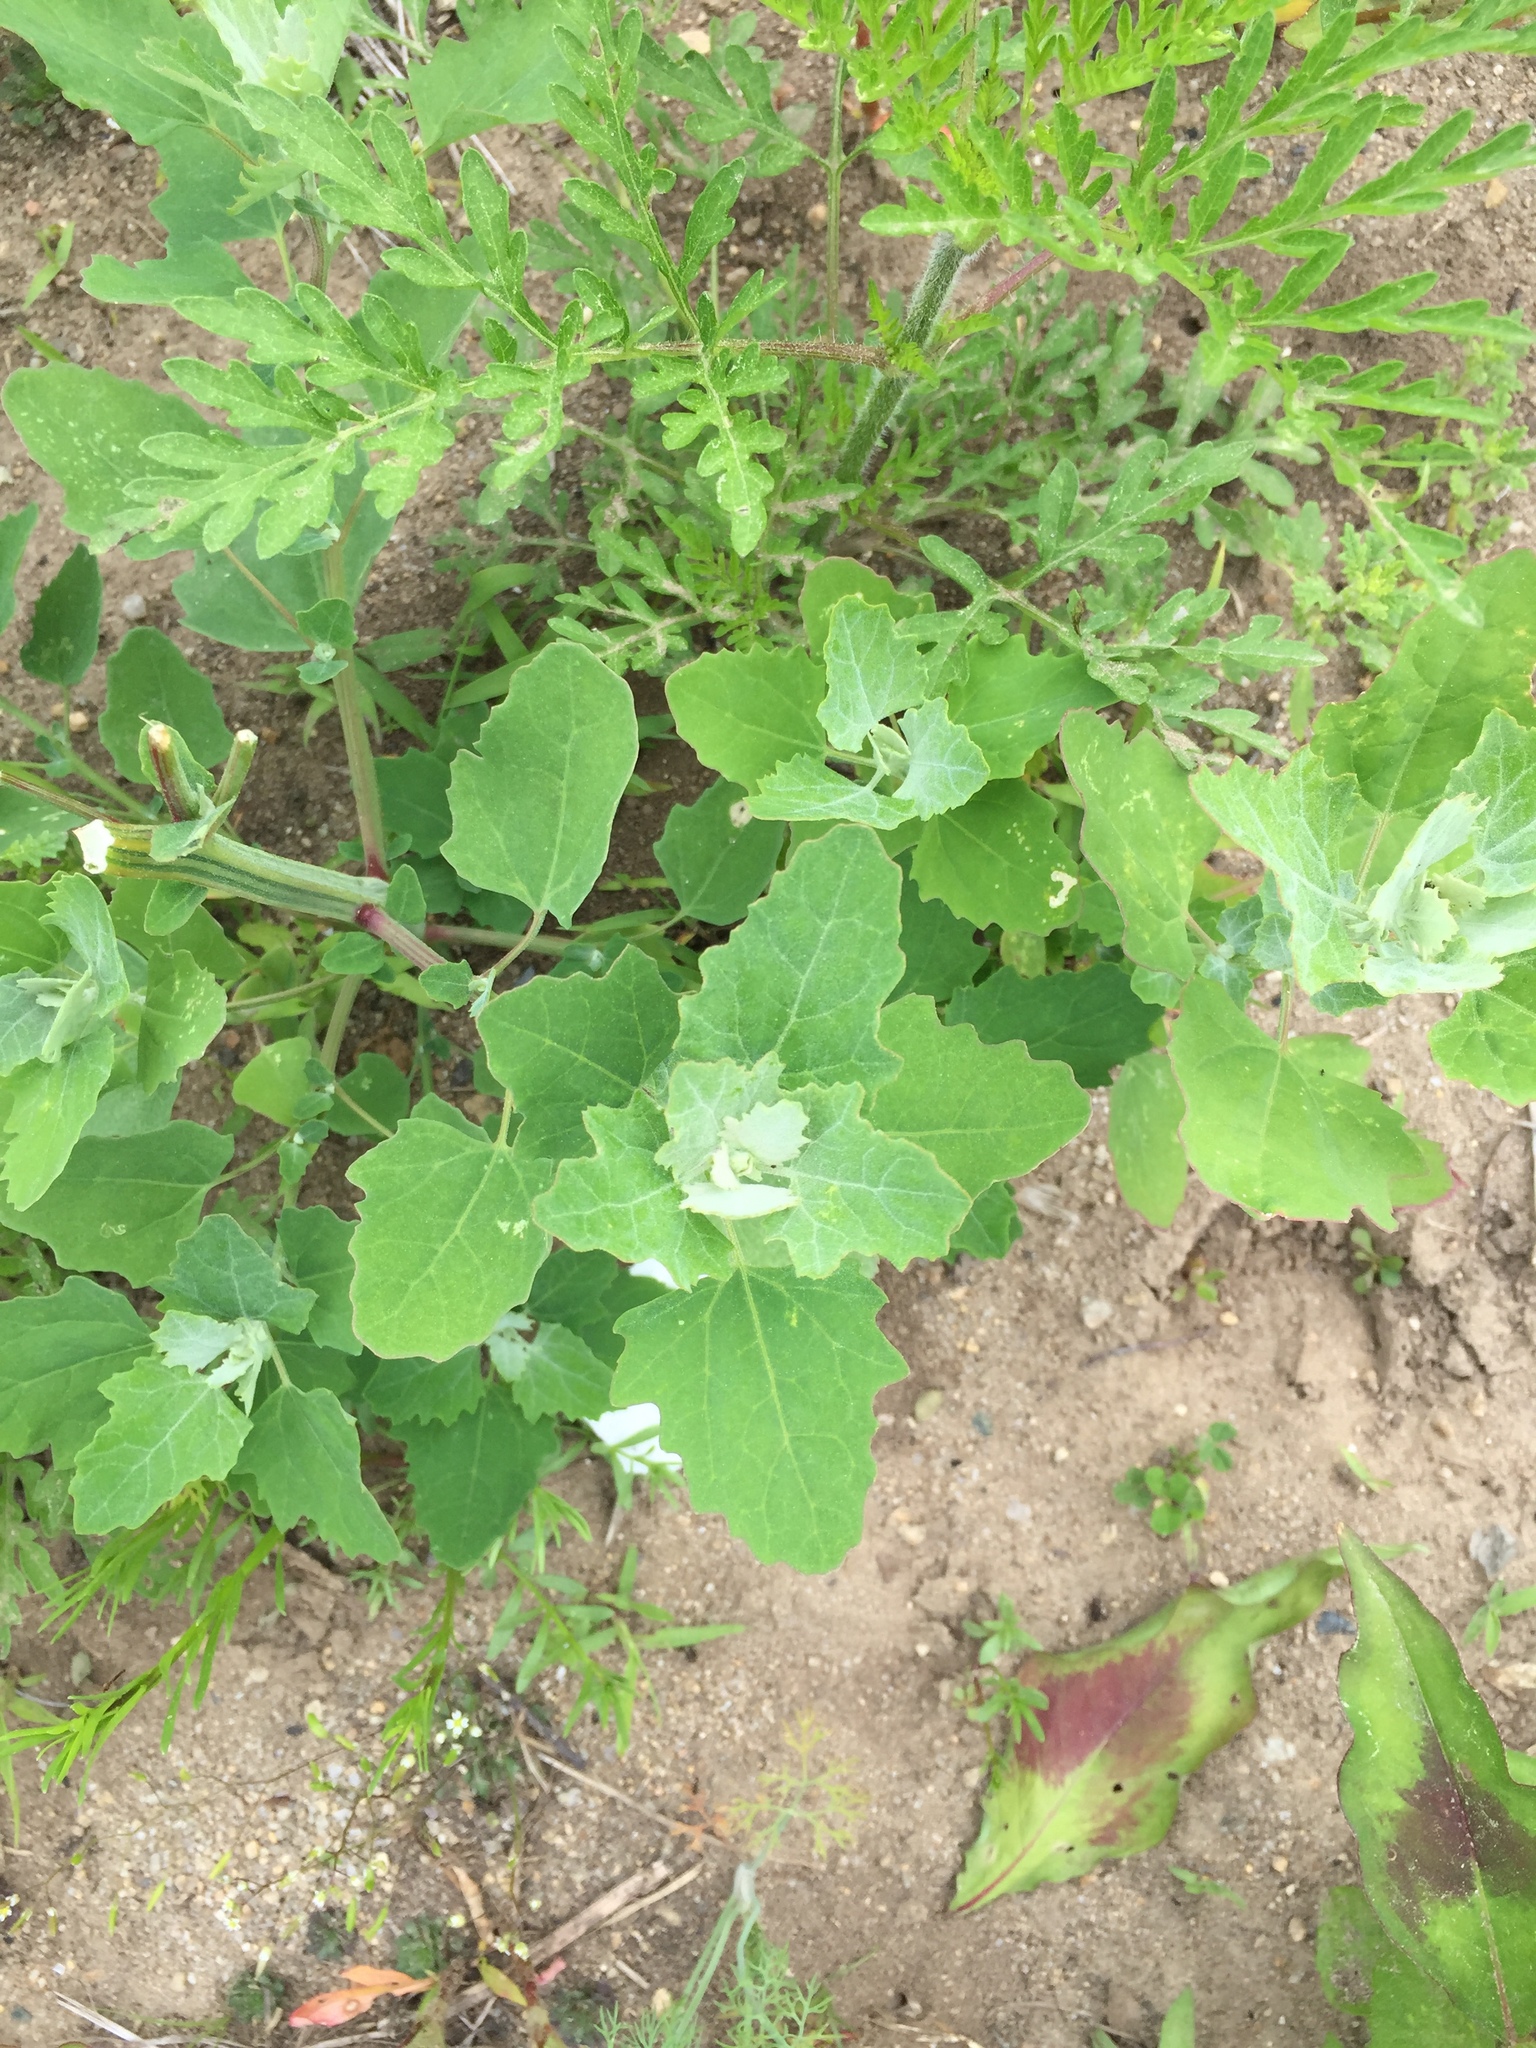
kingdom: Plantae
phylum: Tracheophyta
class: Magnoliopsida
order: Caryophyllales
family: Amaranthaceae
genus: Chenopodium
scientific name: Chenopodium album
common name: Fat-hen
